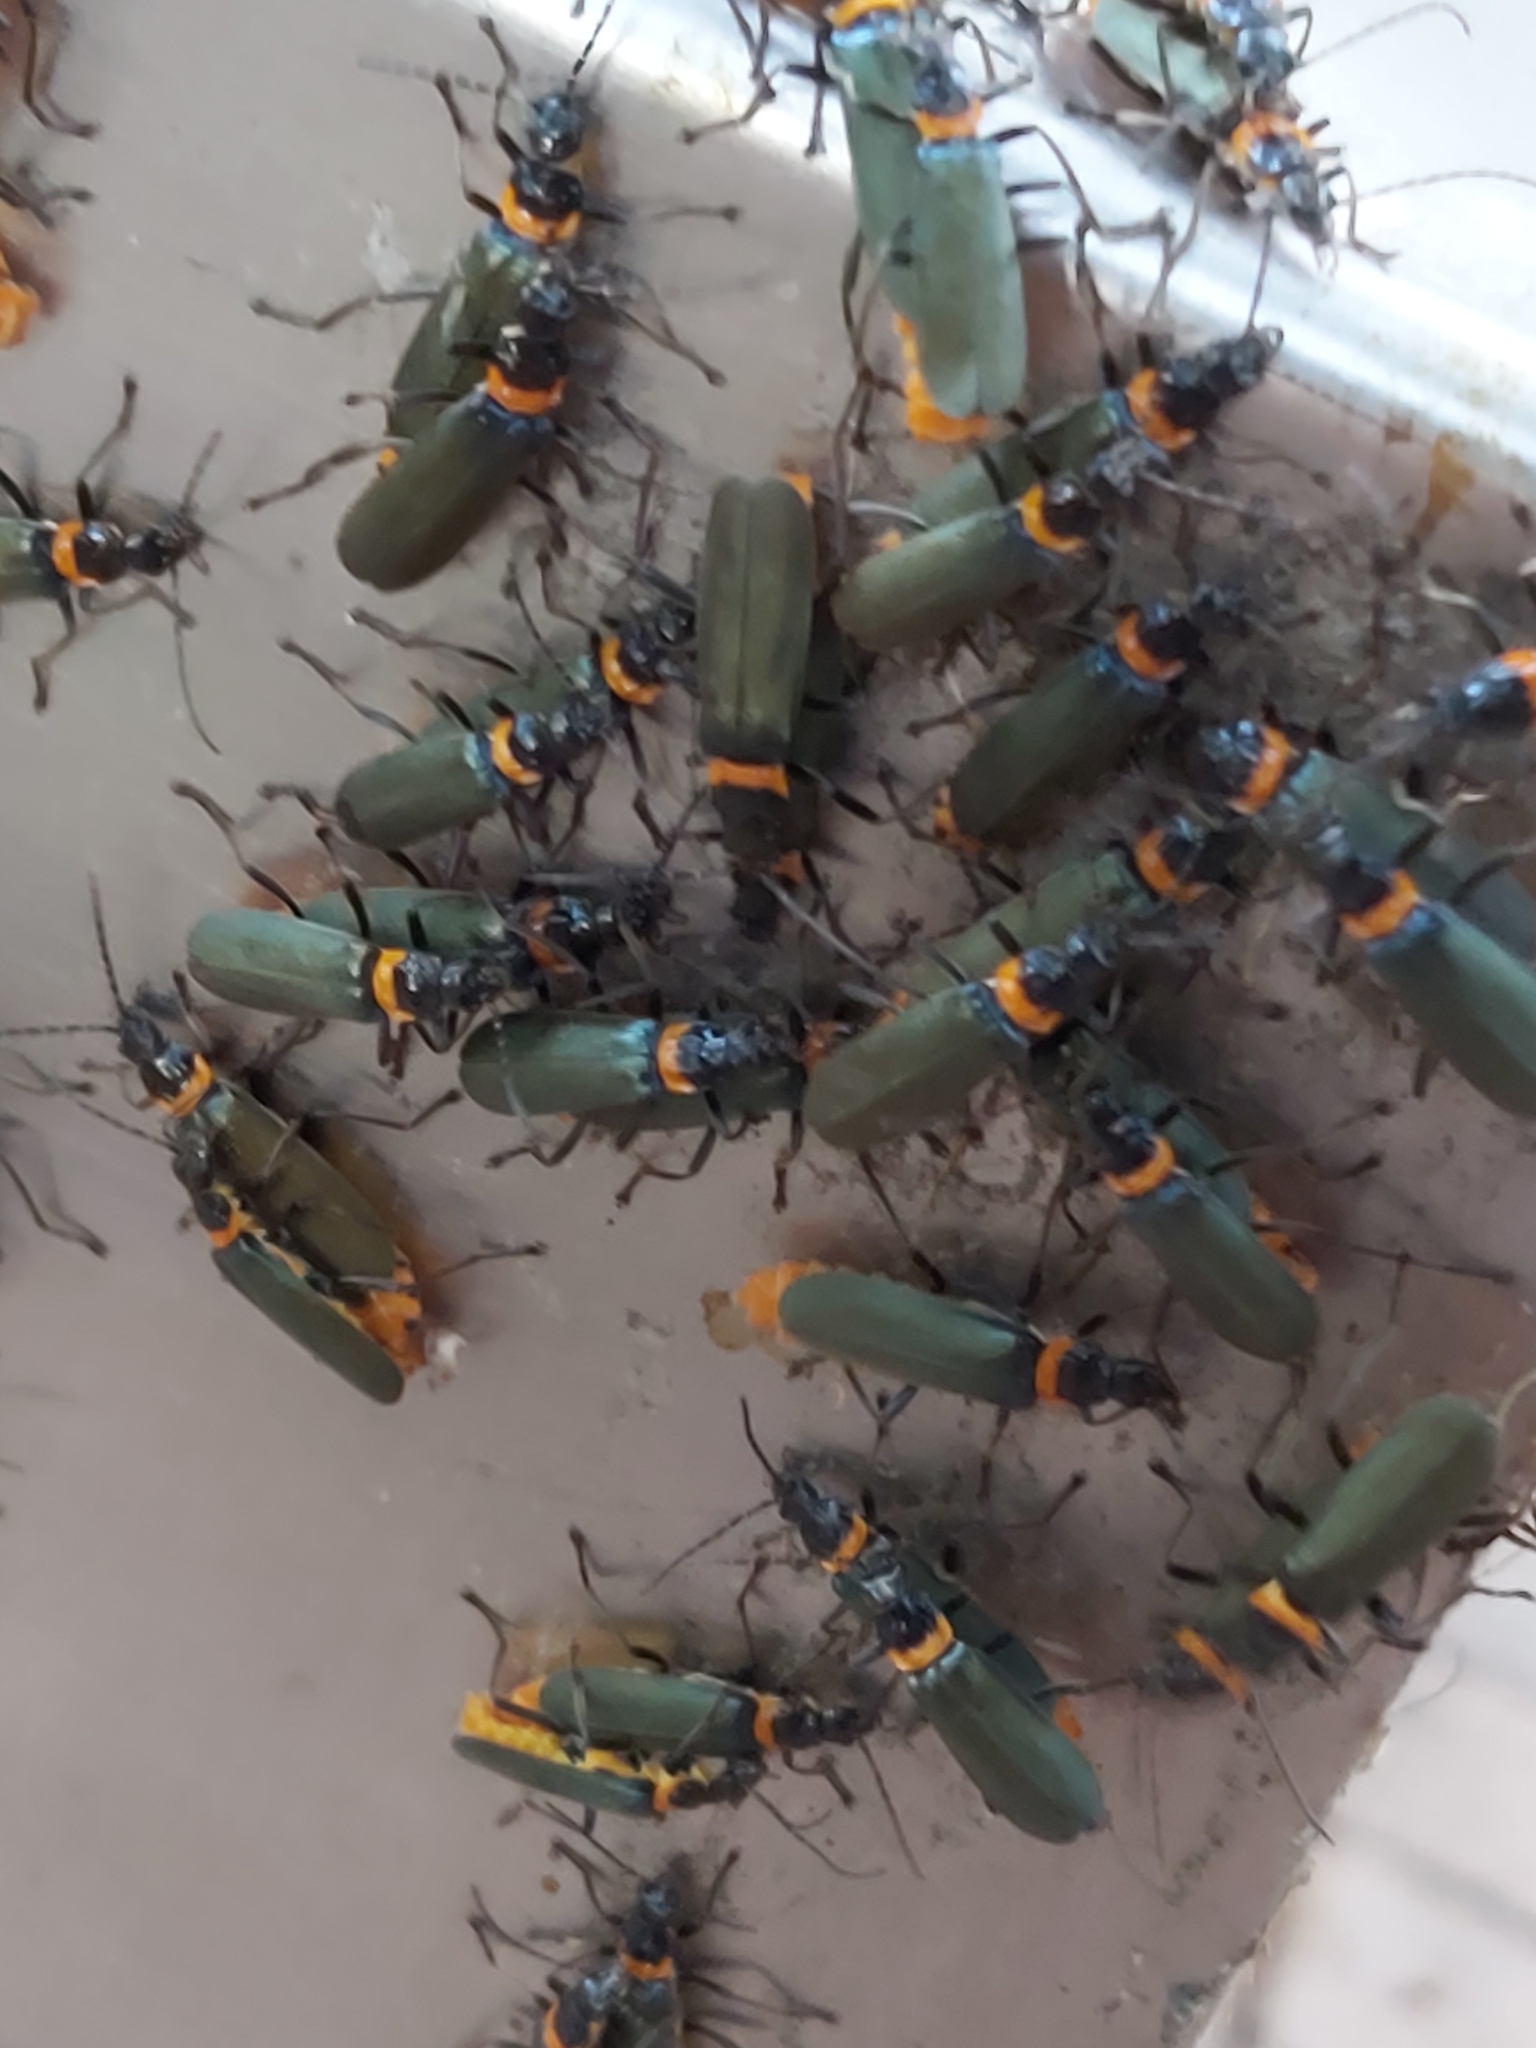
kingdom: Animalia
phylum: Arthropoda
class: Insecta
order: Coleoptera
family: Cantharidae
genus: Chauliognathus
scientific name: Chauliognathus
